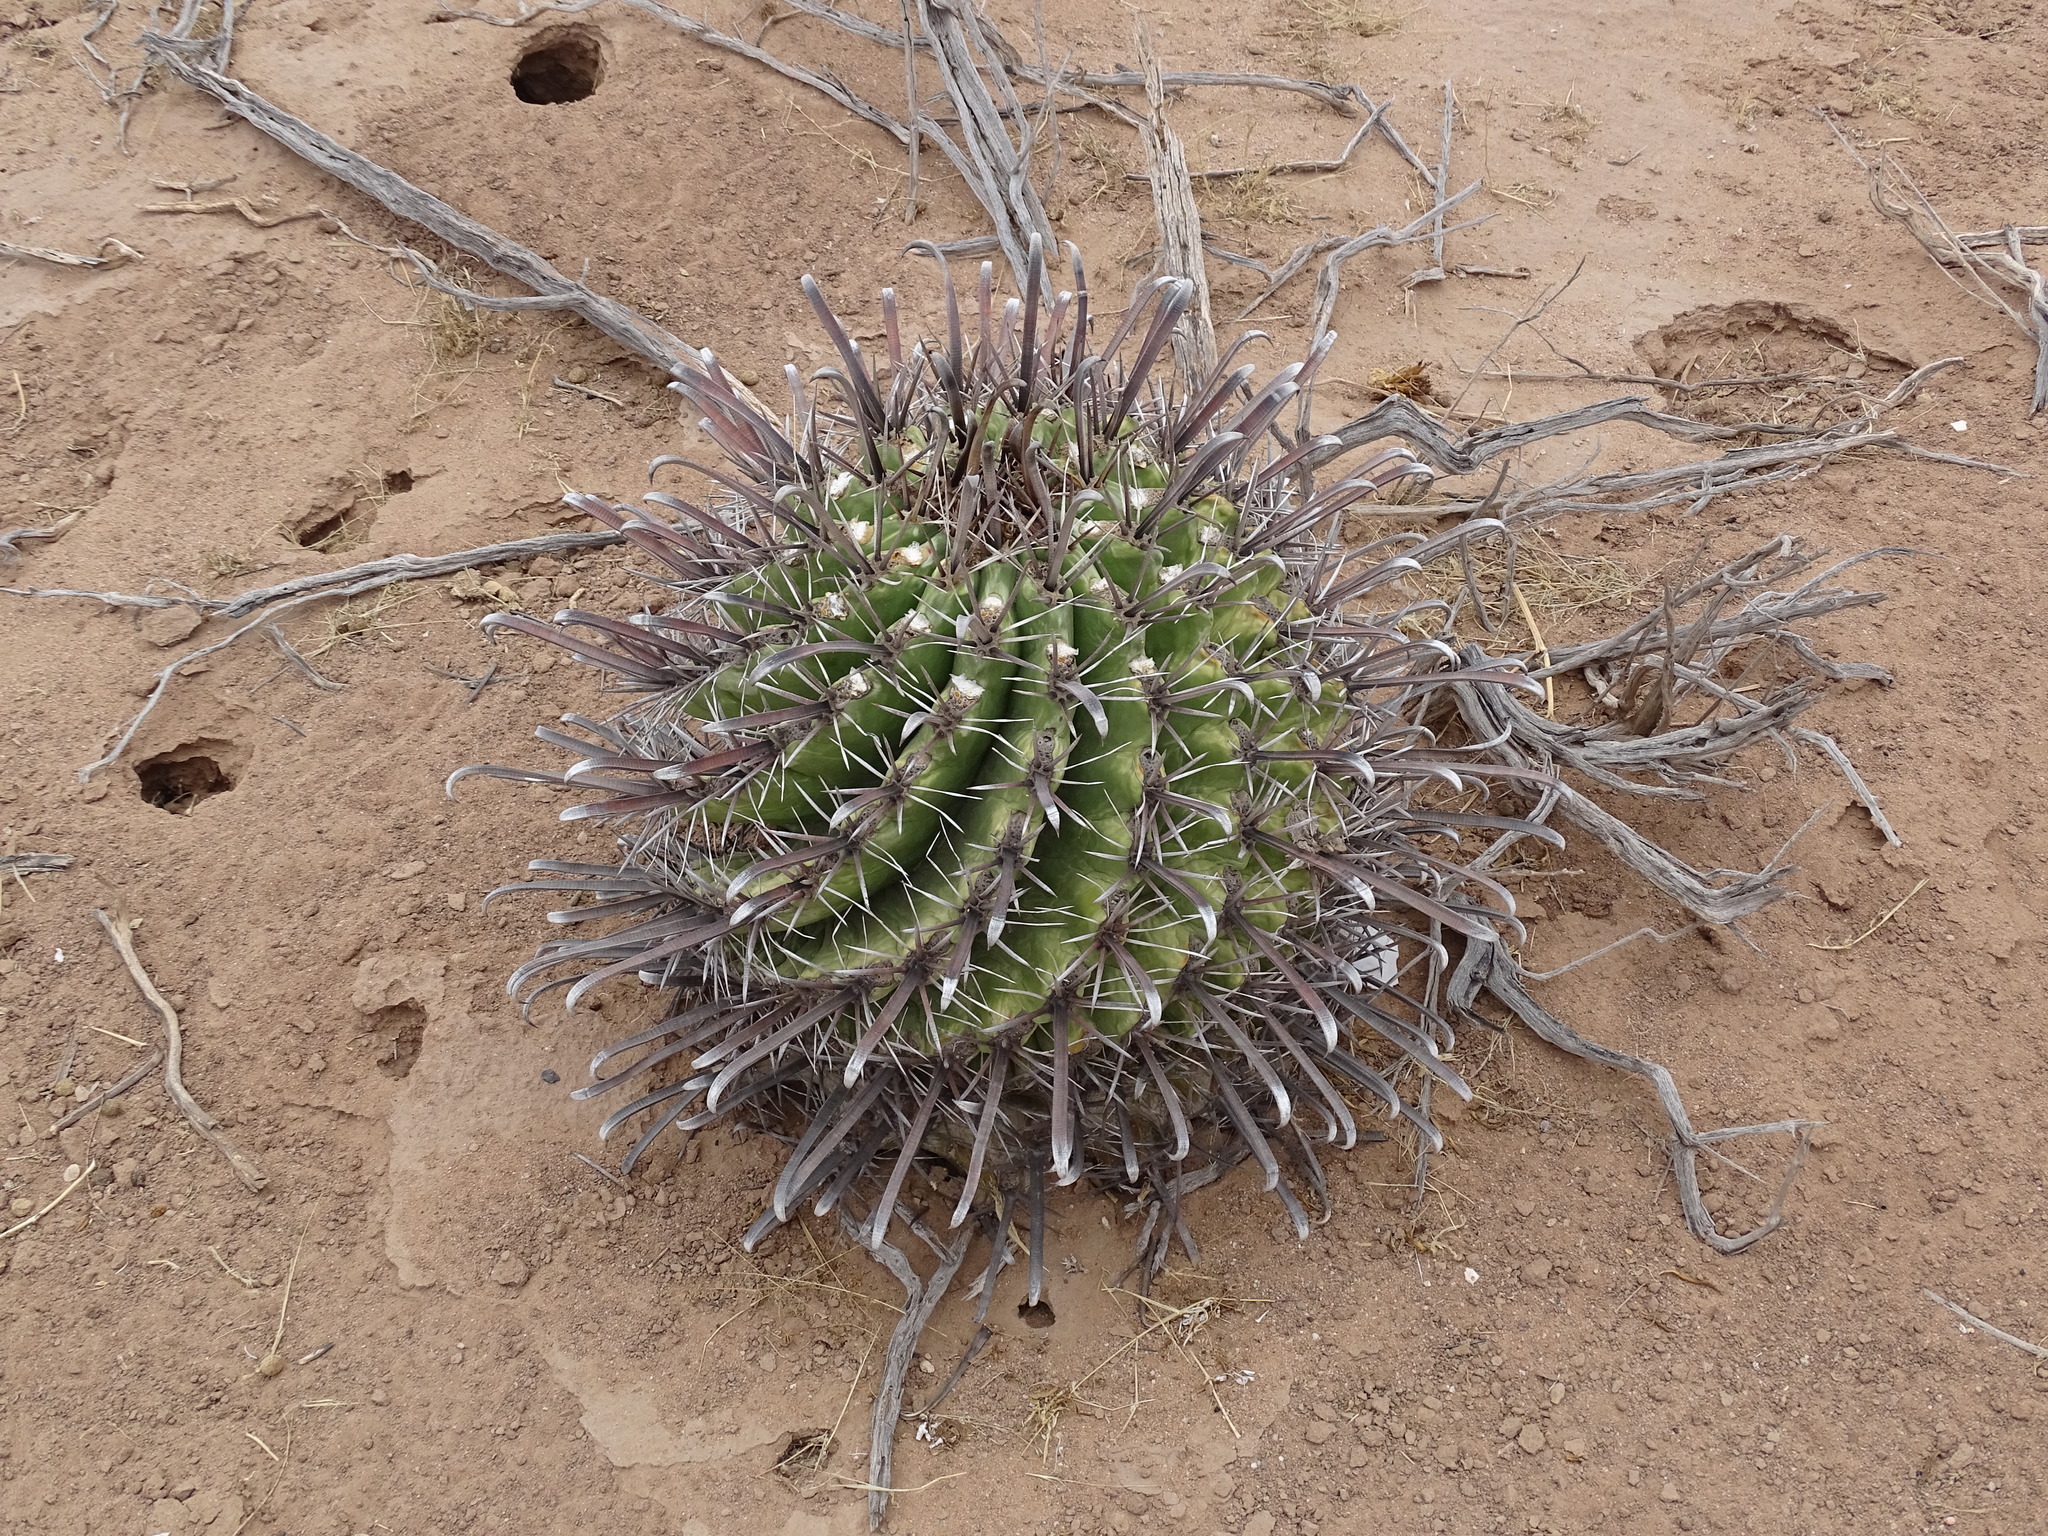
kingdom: Plantae
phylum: Tracheophyta
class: Magnoliopsida
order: Caryophyllales
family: Cactaceae
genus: Ferocactus
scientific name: Ferocactus wislizeni
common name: Candy barrel cactus
